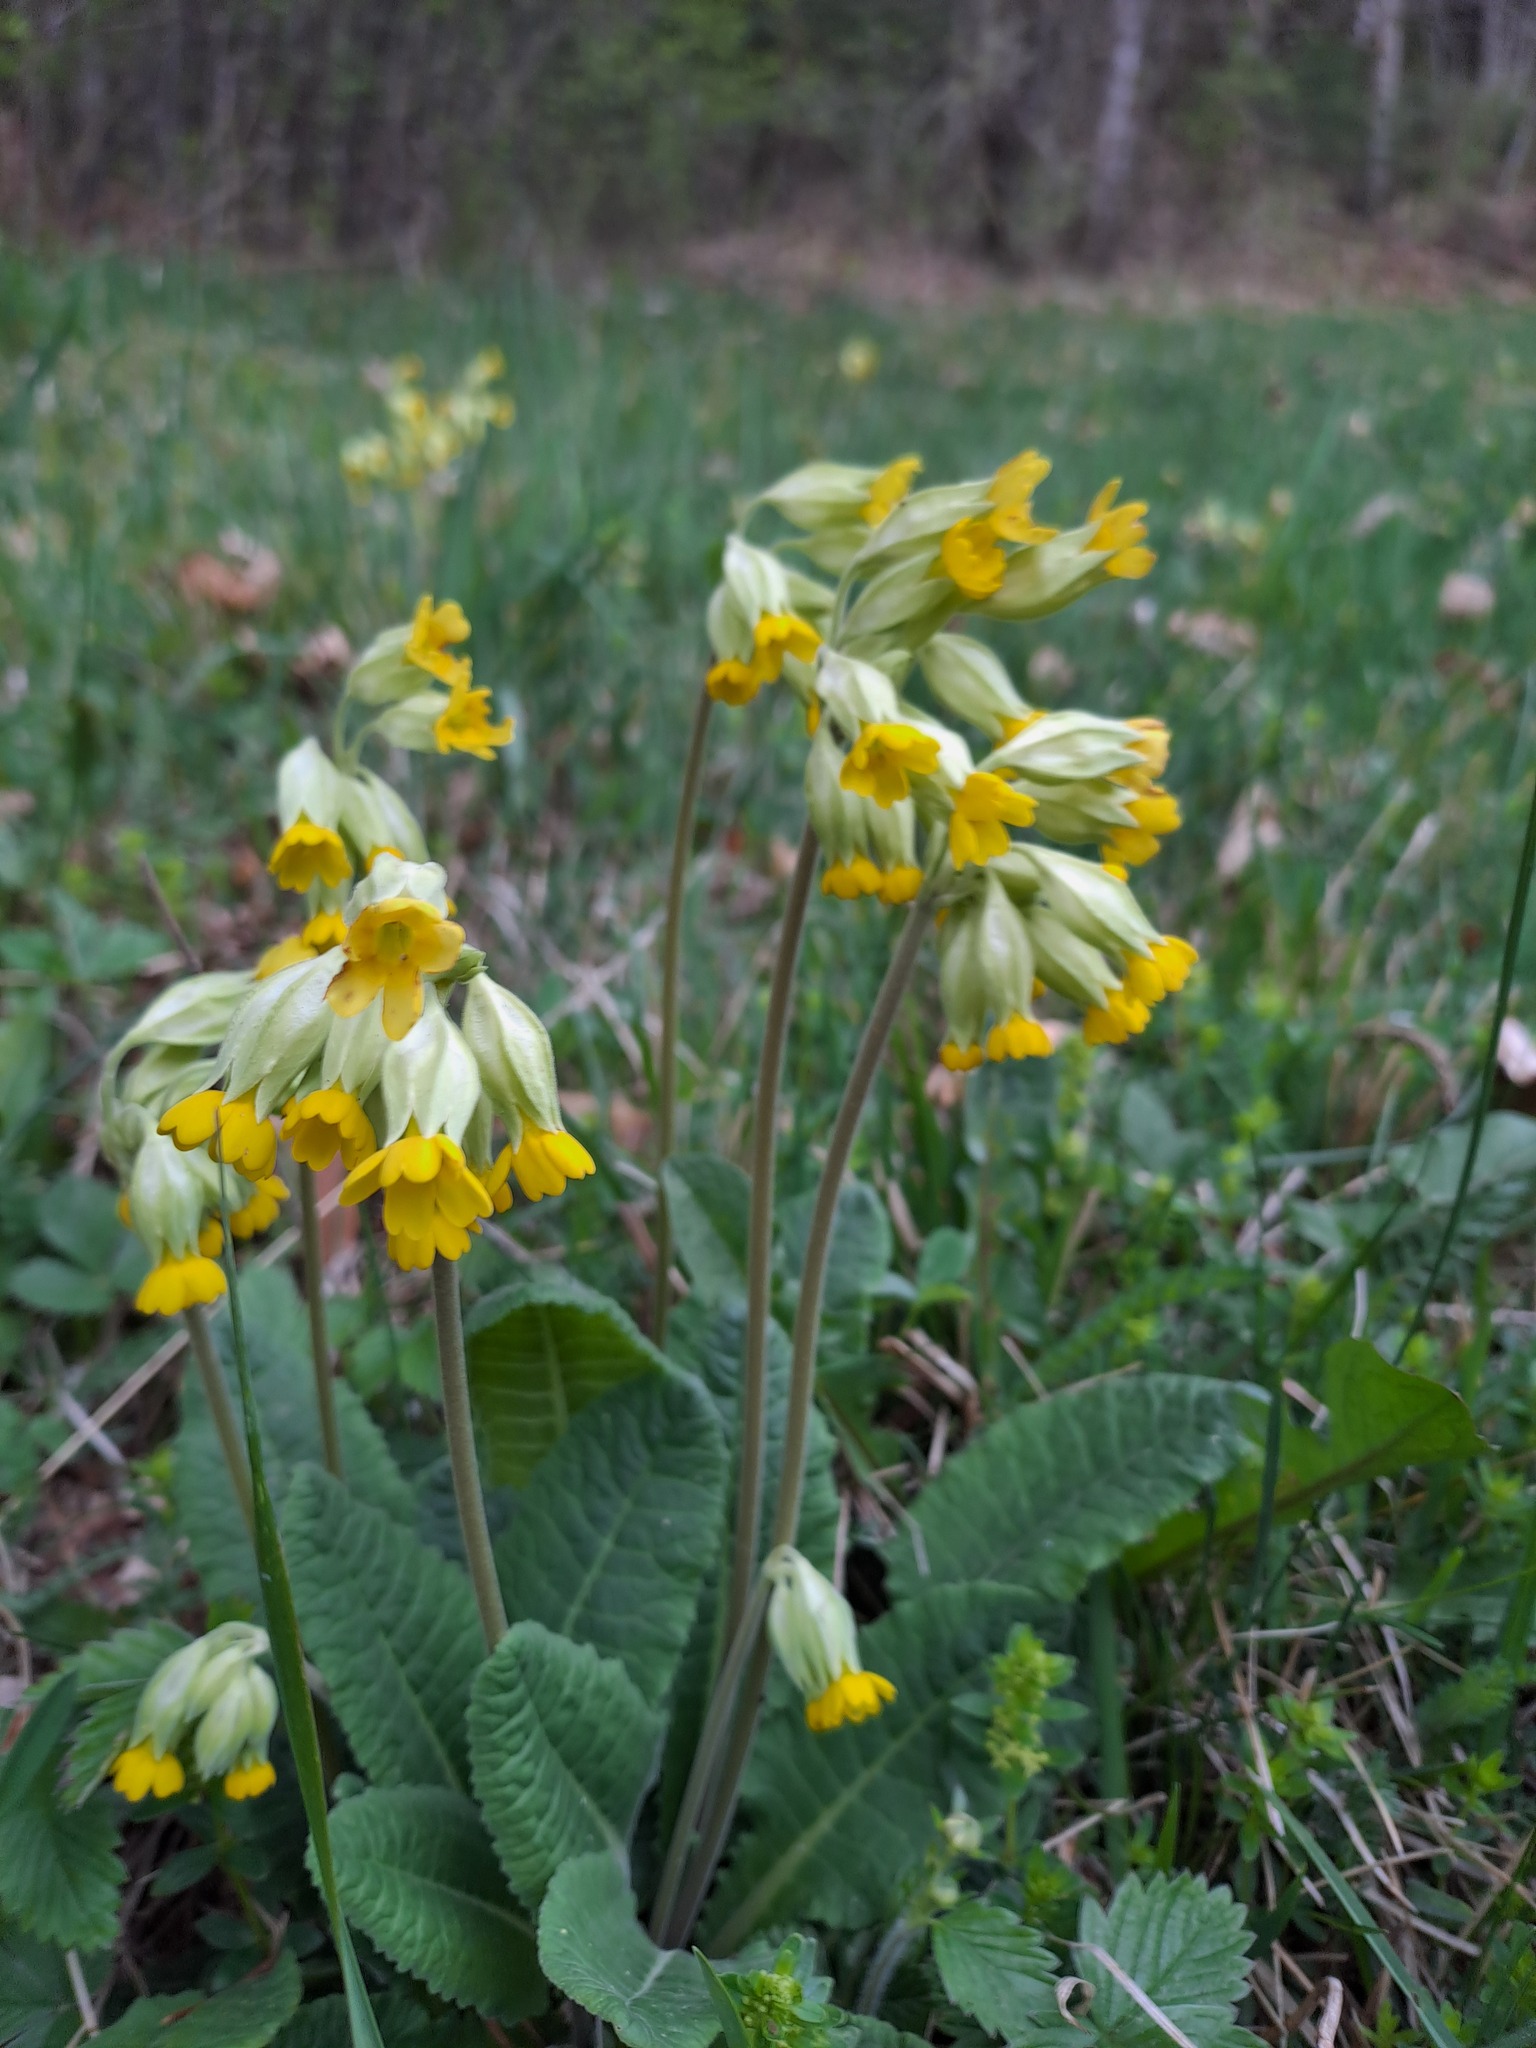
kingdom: Plantae
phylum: Tracheophyta
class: Magnoliopsida
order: Ericales
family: Primulaceae
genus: Primula
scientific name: Primula veris
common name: Cowslip
